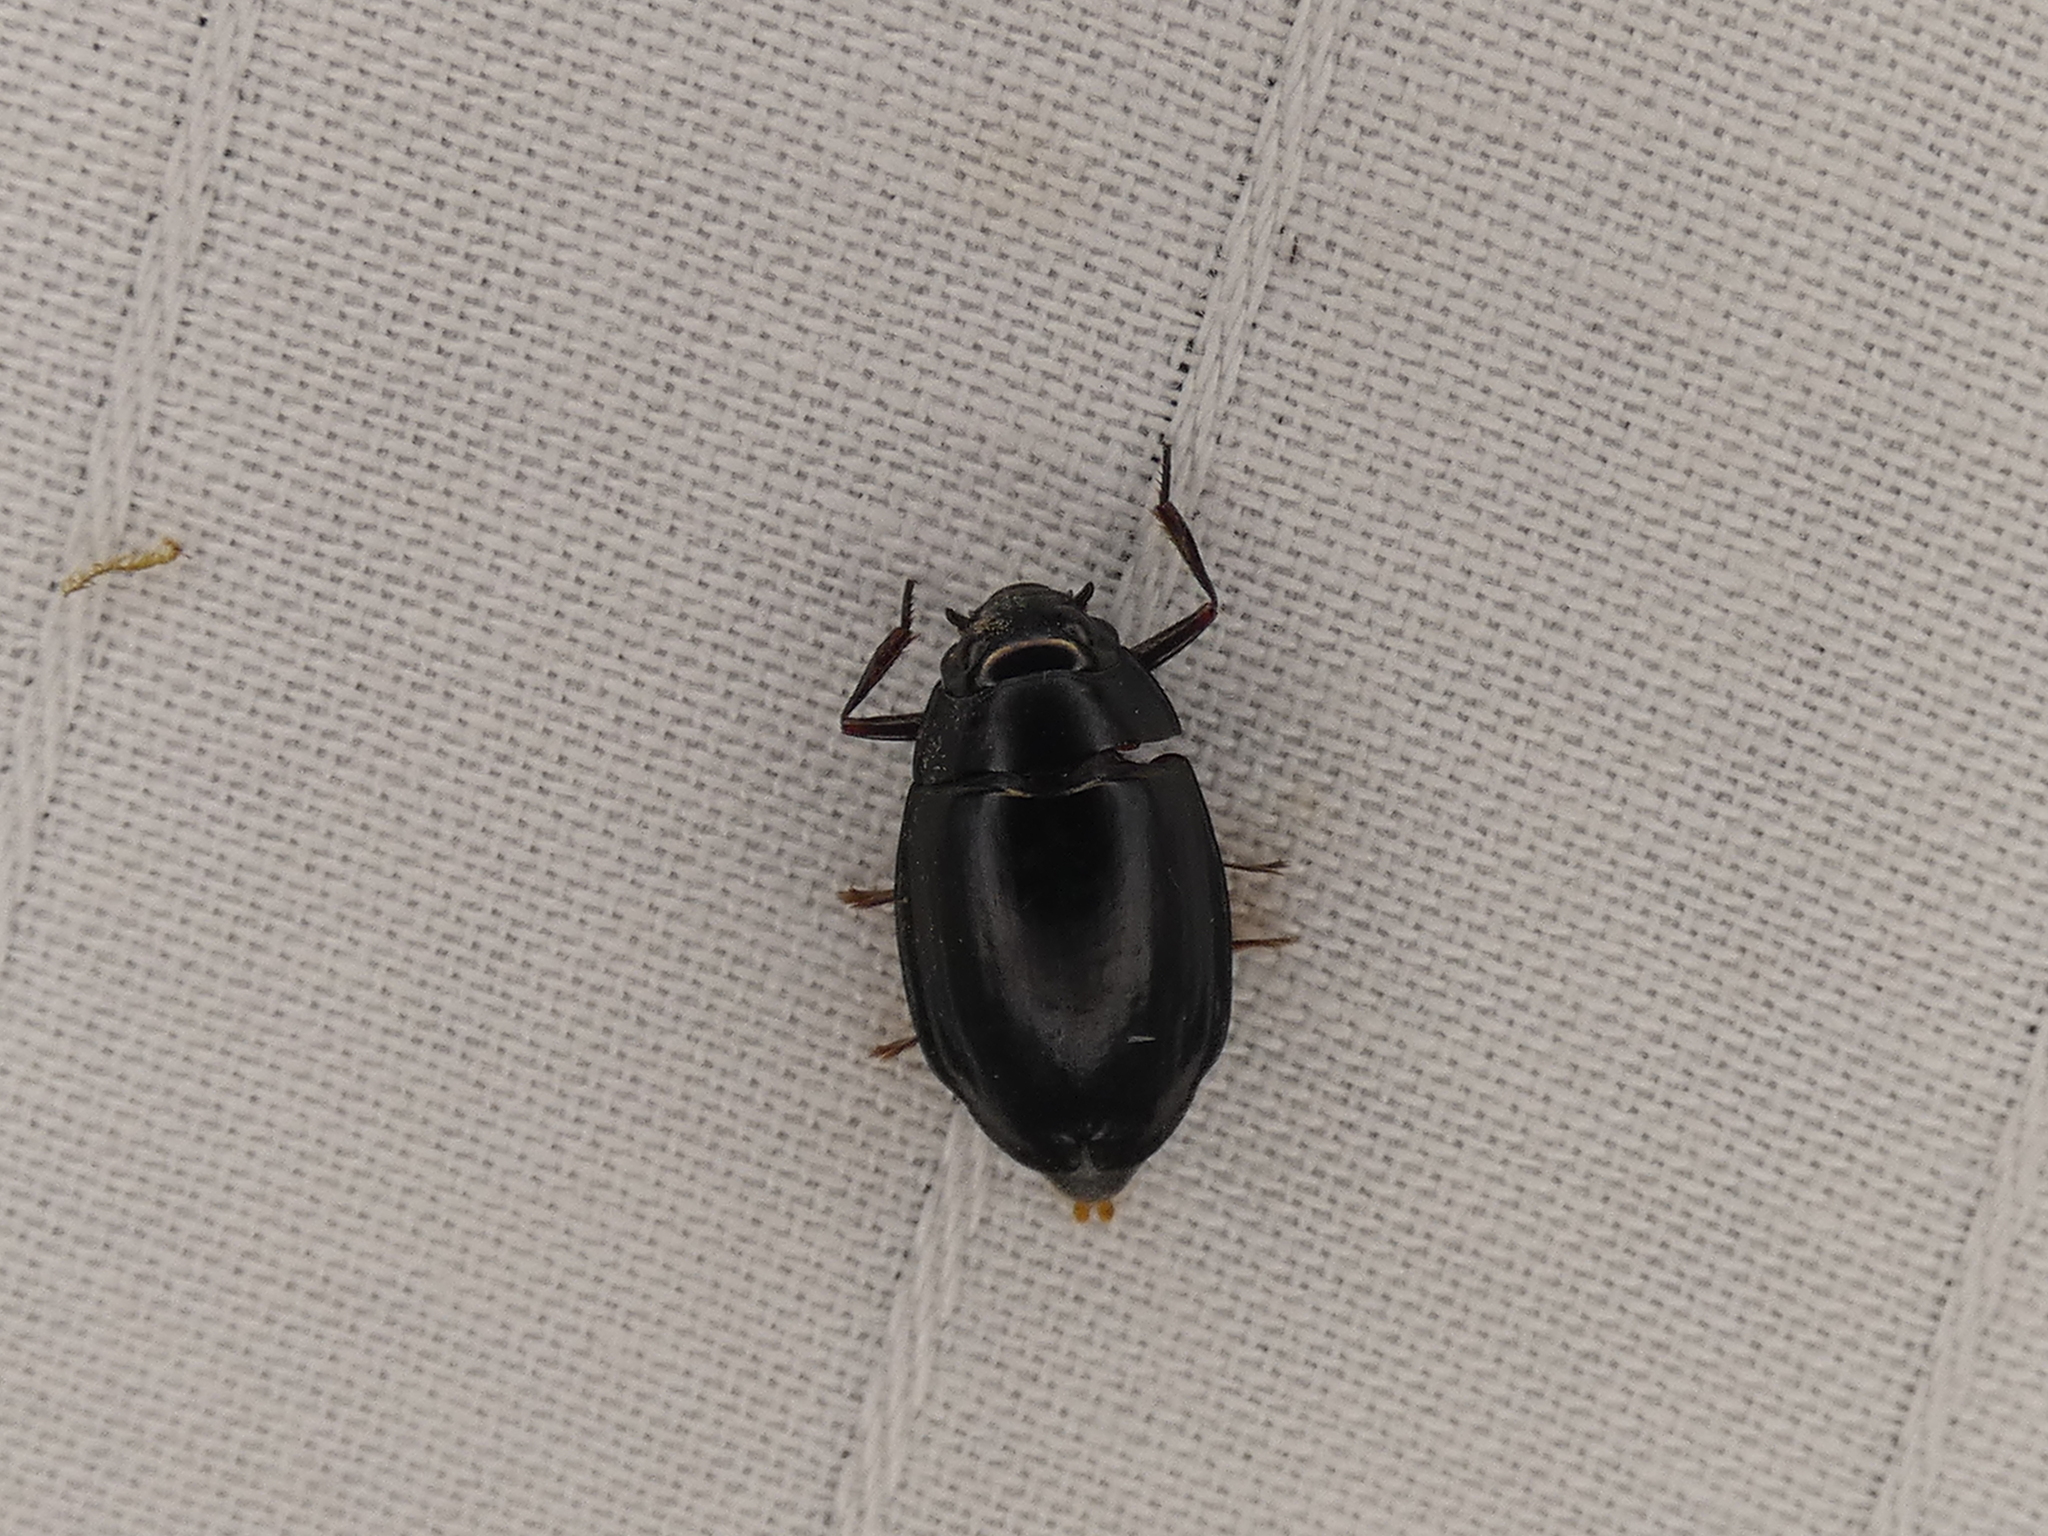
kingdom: Animalia
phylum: Arthropoda
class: Insecta
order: Coleoptera
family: Gyrinidae
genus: Dineutus
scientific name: Dineutus
